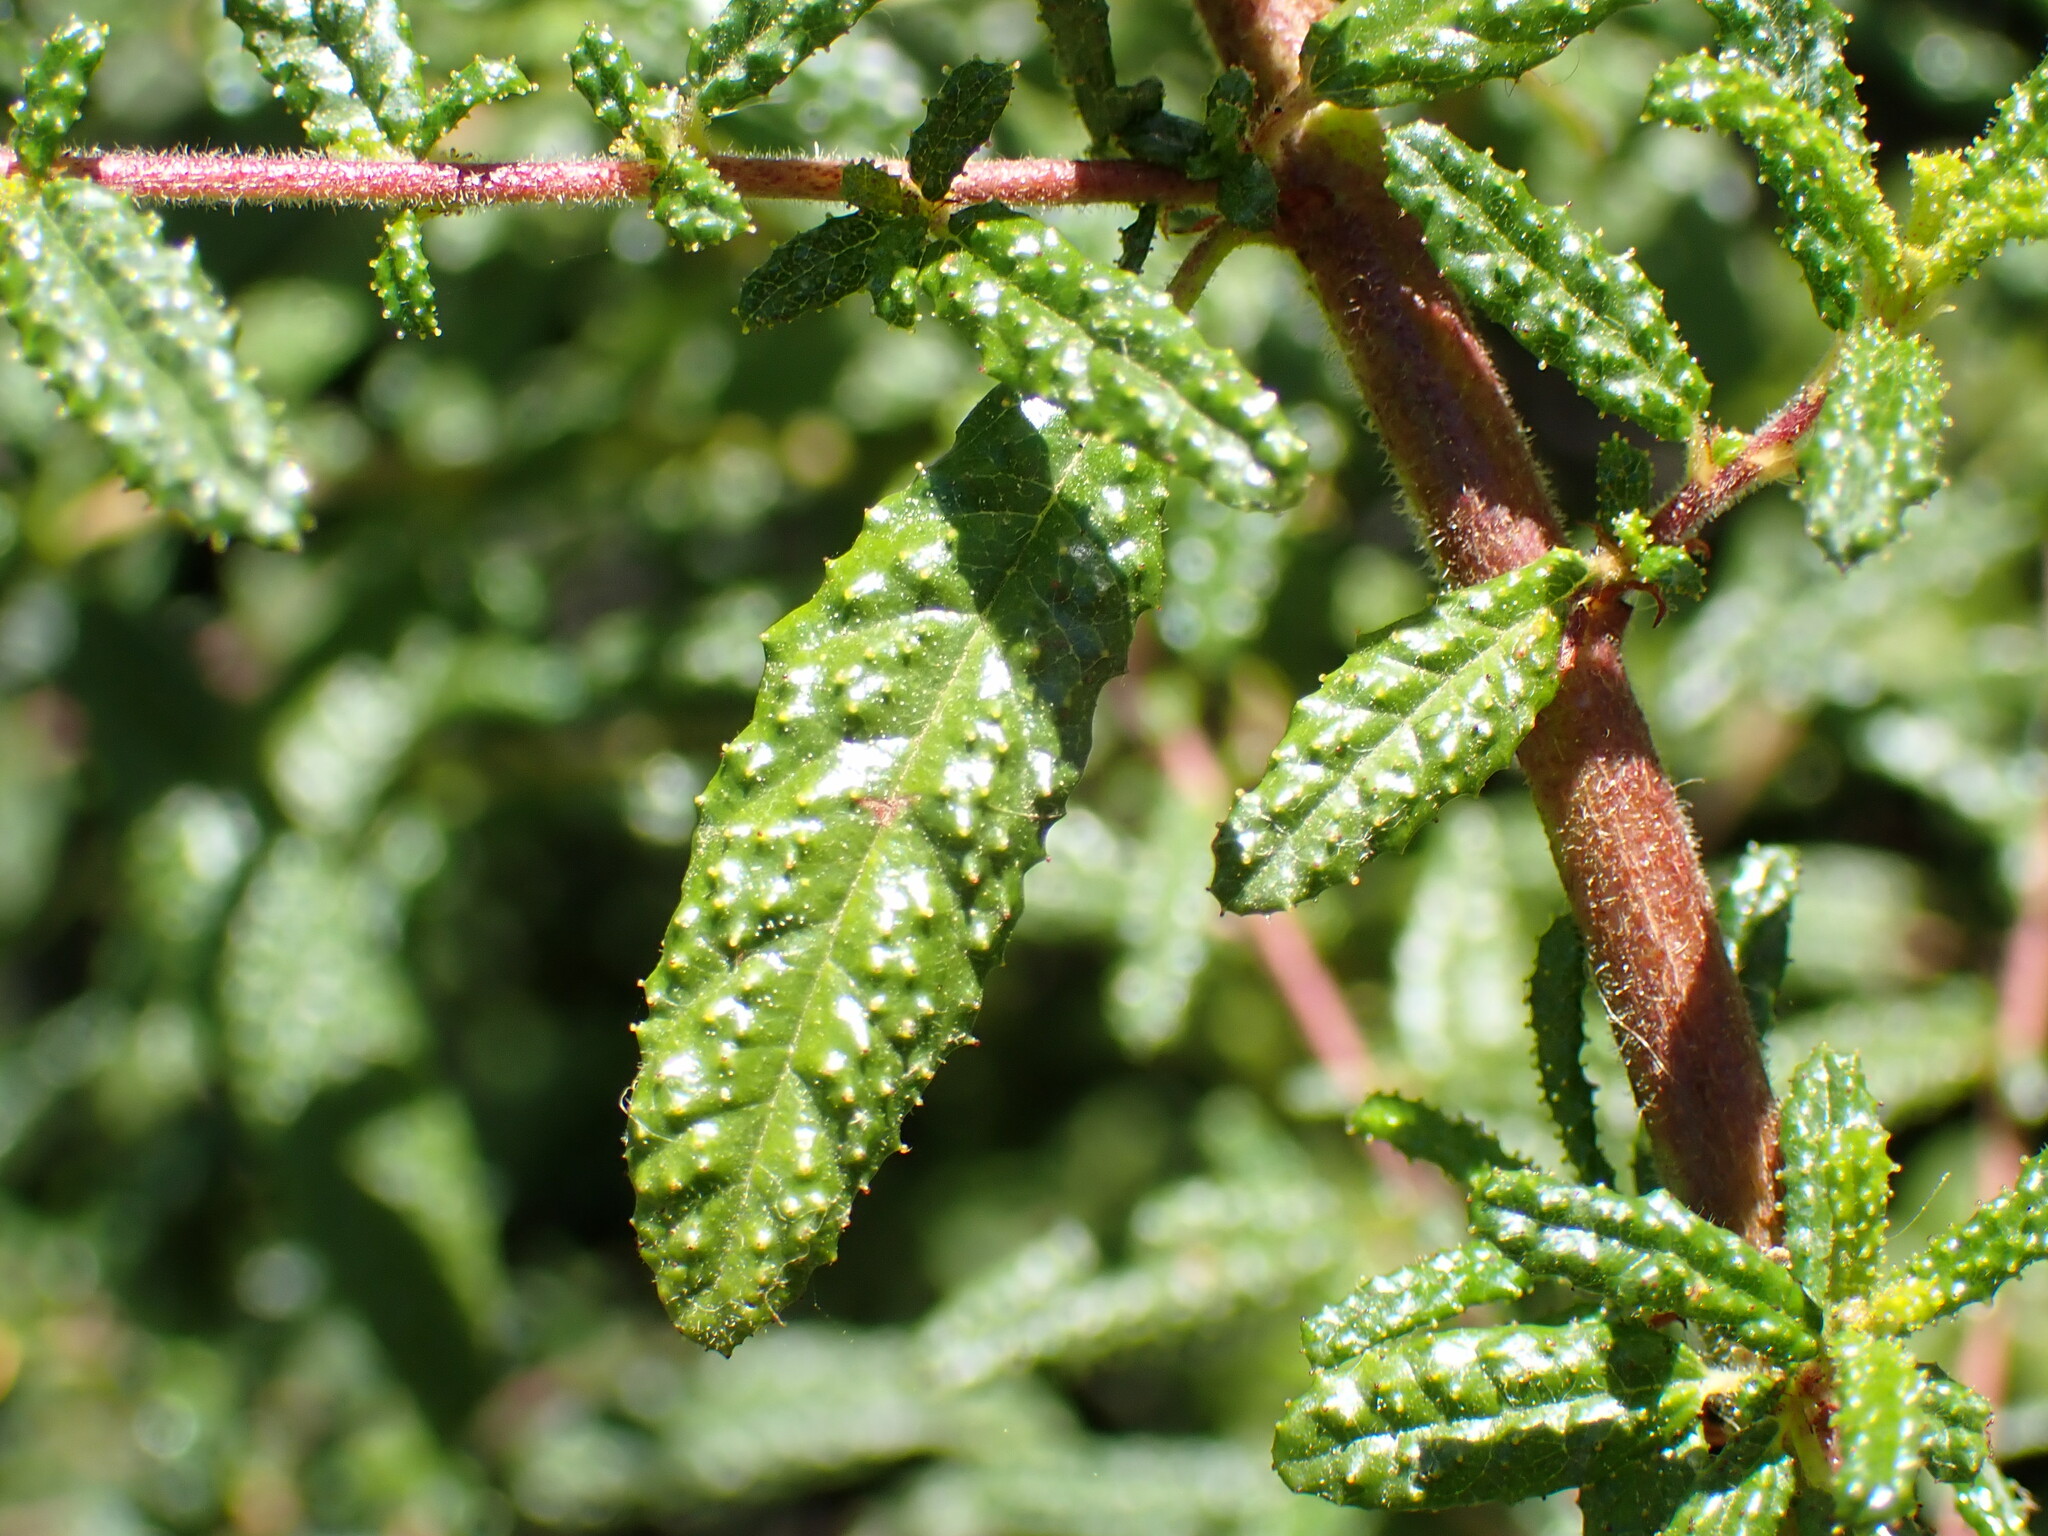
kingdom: Plantae
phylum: Tracheophyta
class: Magnoliopsida
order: Rosales
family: Rhamnaceae
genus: Ceanothus
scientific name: Ceanothus papillosus
